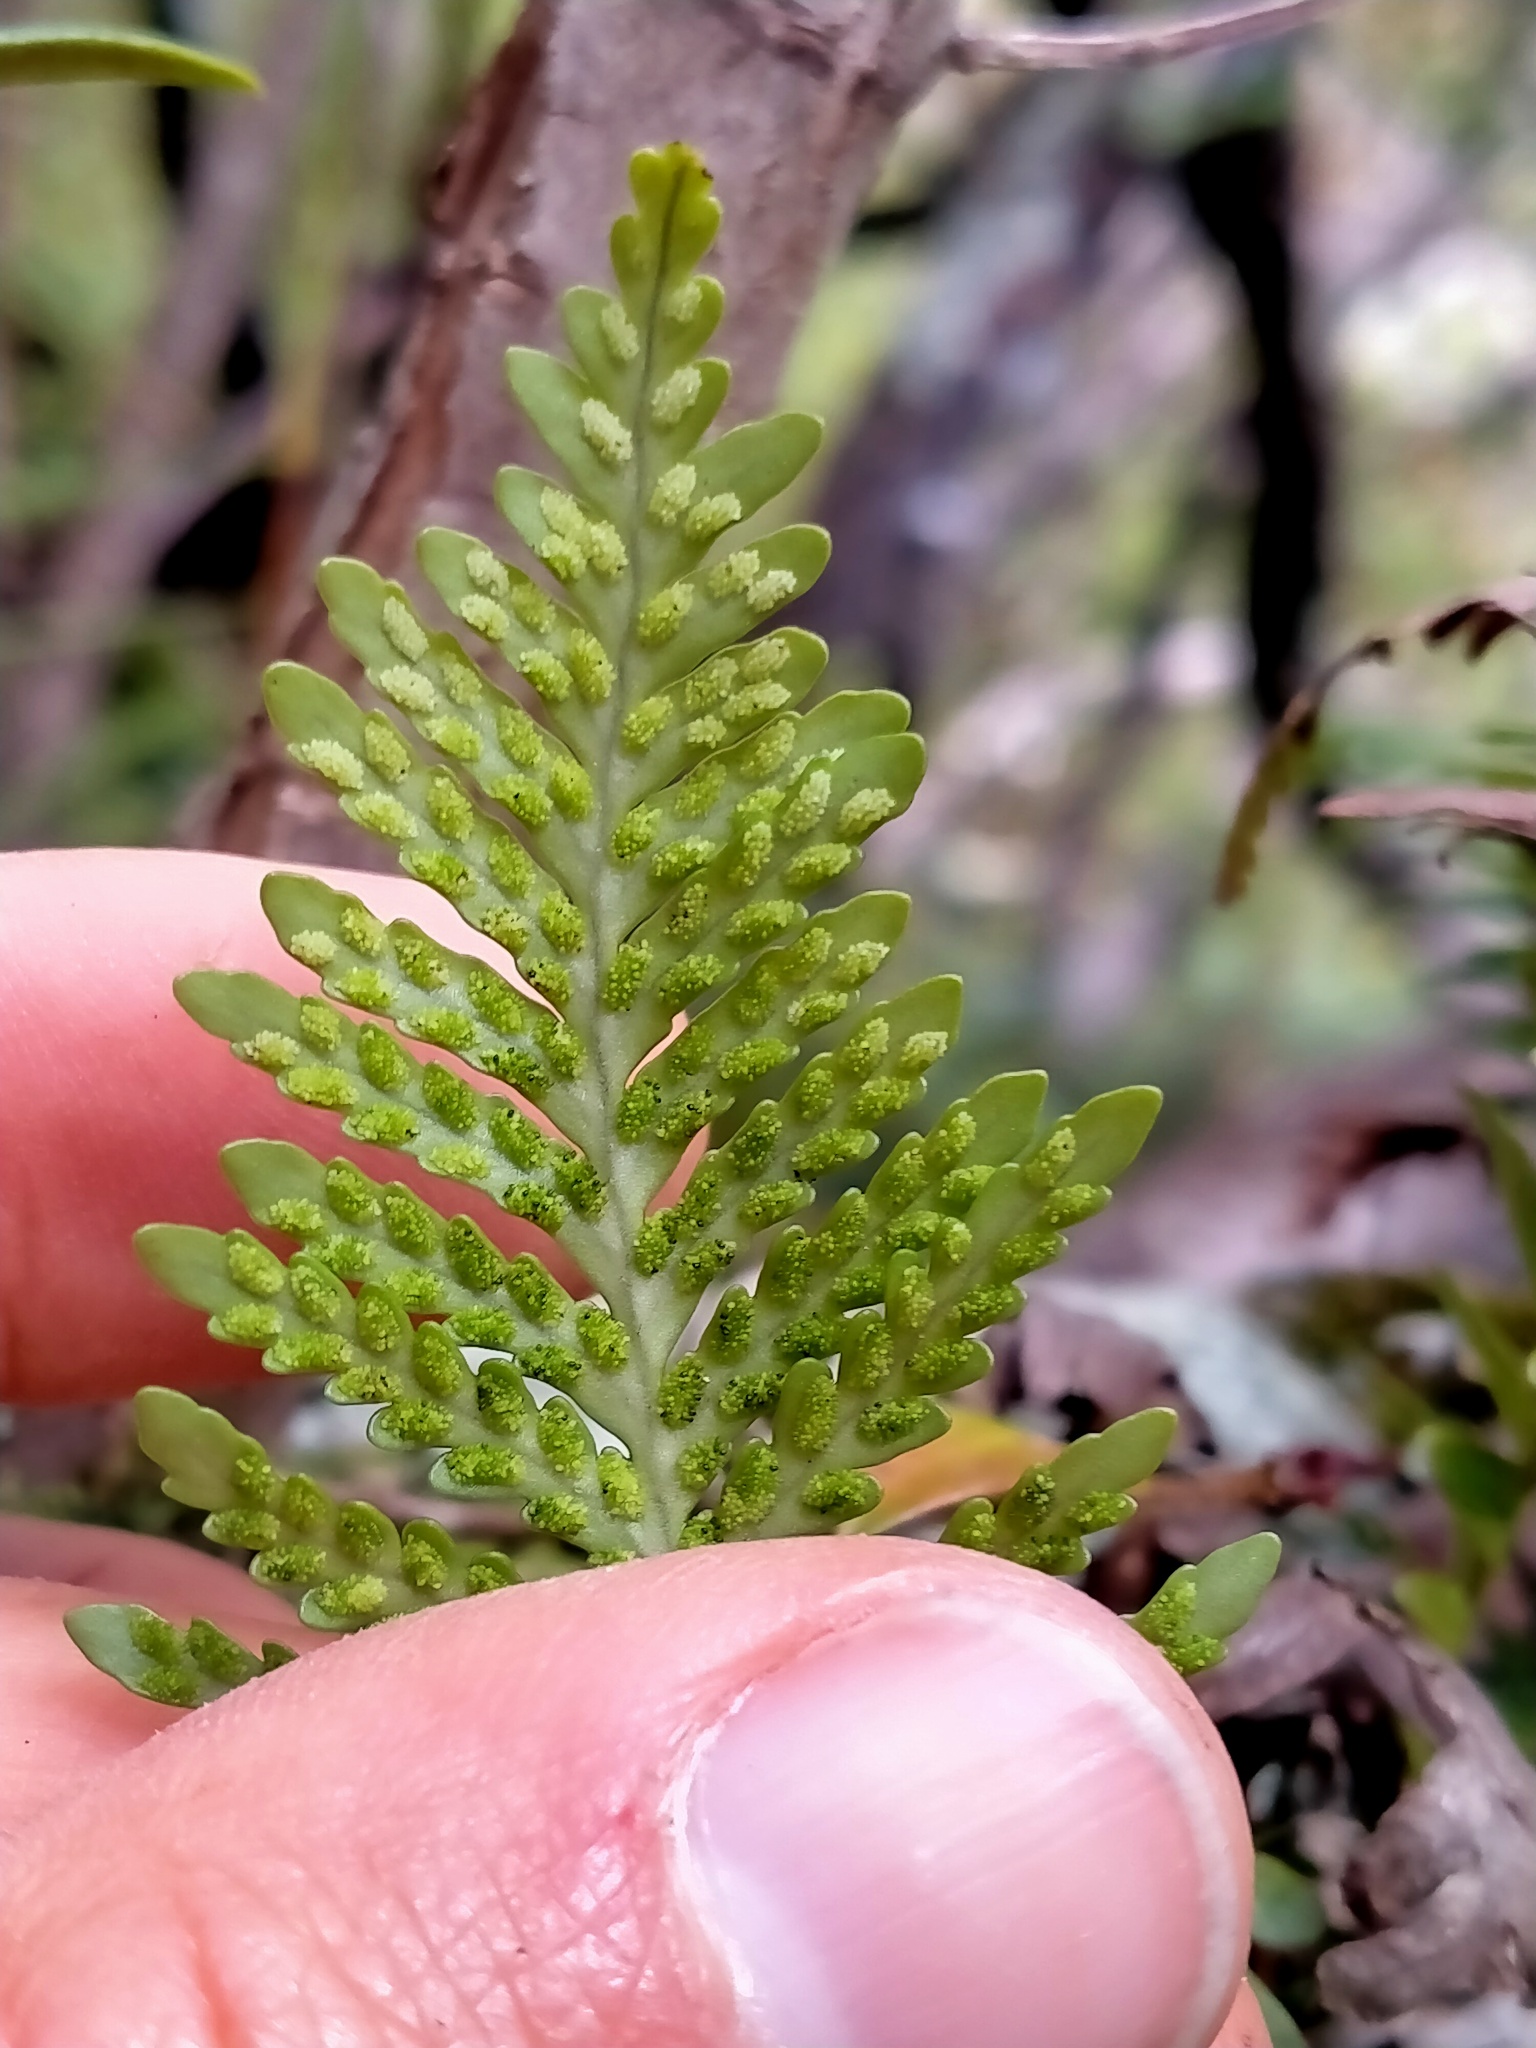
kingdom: Plantae
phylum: Tracheophyta
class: Polypodiopsida
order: Polypodiales
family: Polypodiaceae
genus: Notogrammitis
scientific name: Notogrammitis heterophylla
